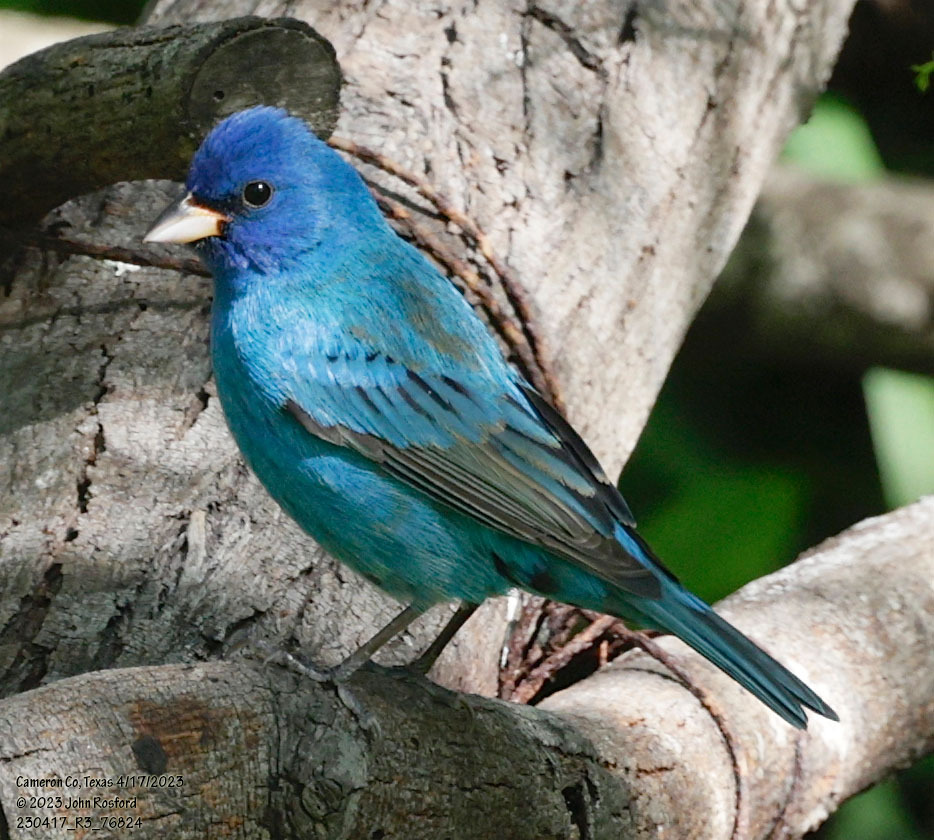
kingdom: Animalia
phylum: Chordata
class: Aves
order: Passeriformes
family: Cardinalidae
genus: Passerina
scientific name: Passerina cyanea
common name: Indigo bunting
